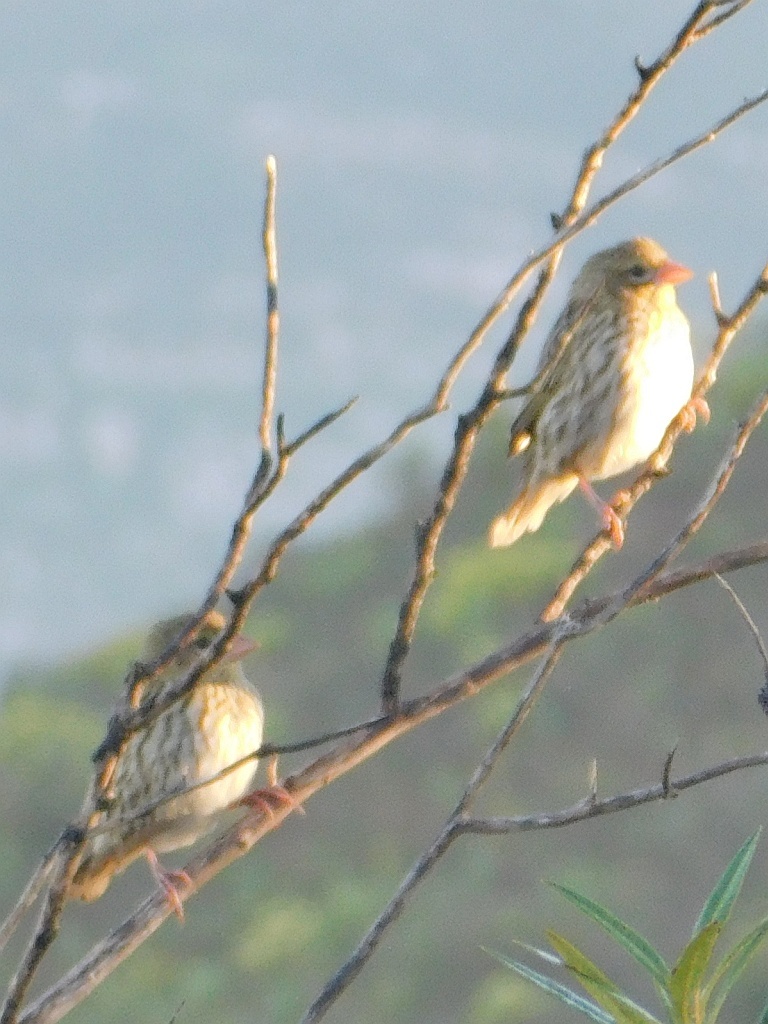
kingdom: Animalia
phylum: Chordata
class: Aves
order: Passeriformes
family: Ploceidae
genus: Euplectes
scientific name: Euplectes capensis
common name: Yellow bishop
